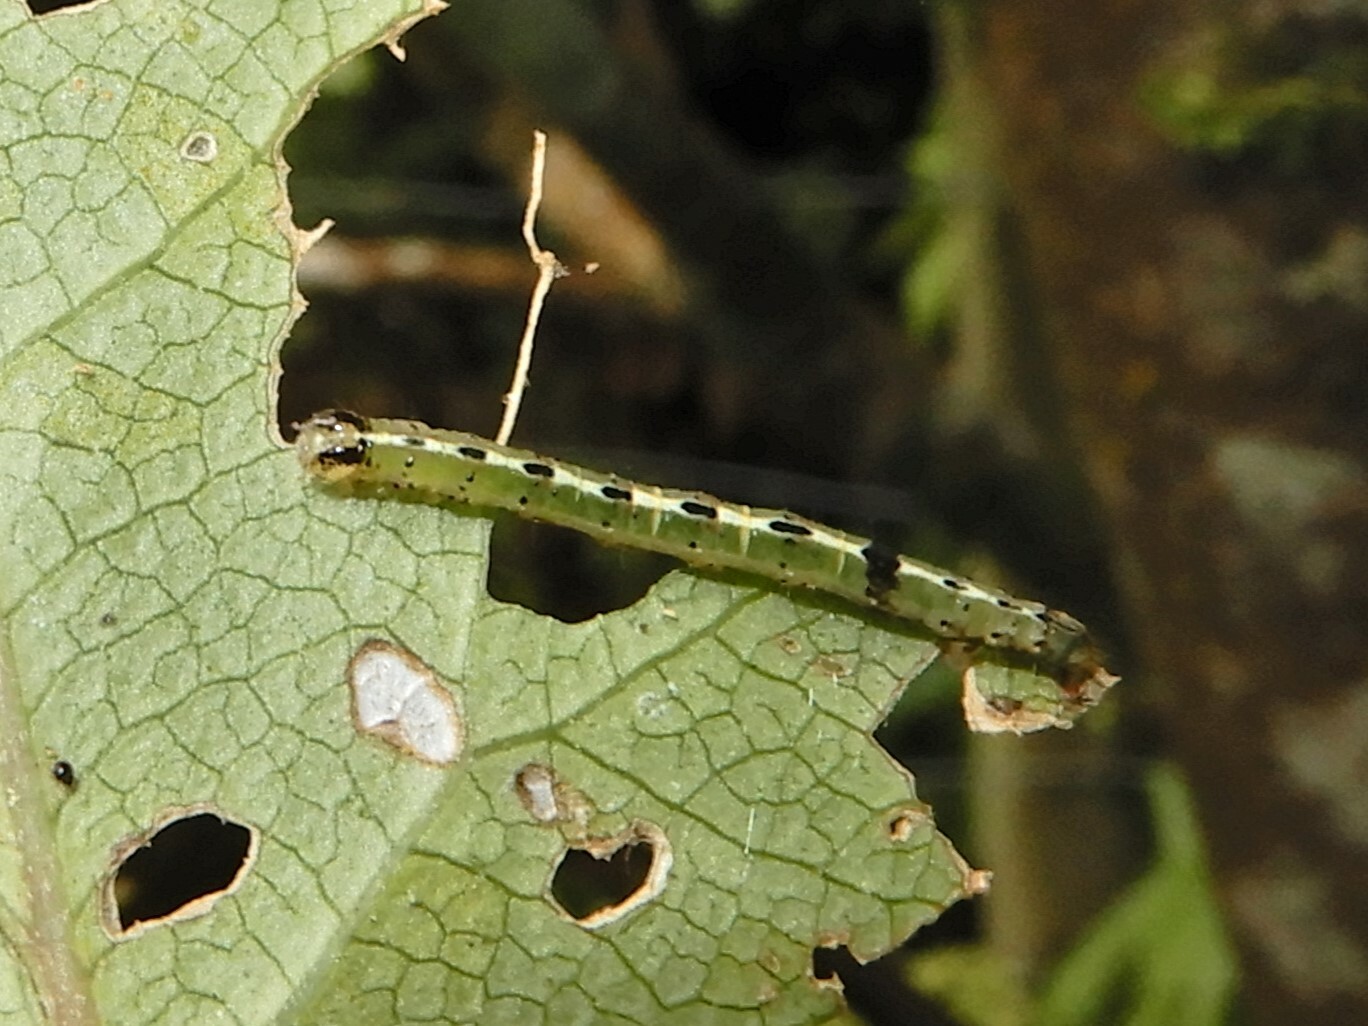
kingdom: Animalia
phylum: Arthropoda
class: Insecta
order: Lepidoptera
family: Geometridae
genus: Epiphryne
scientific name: Epiphryne undosata
